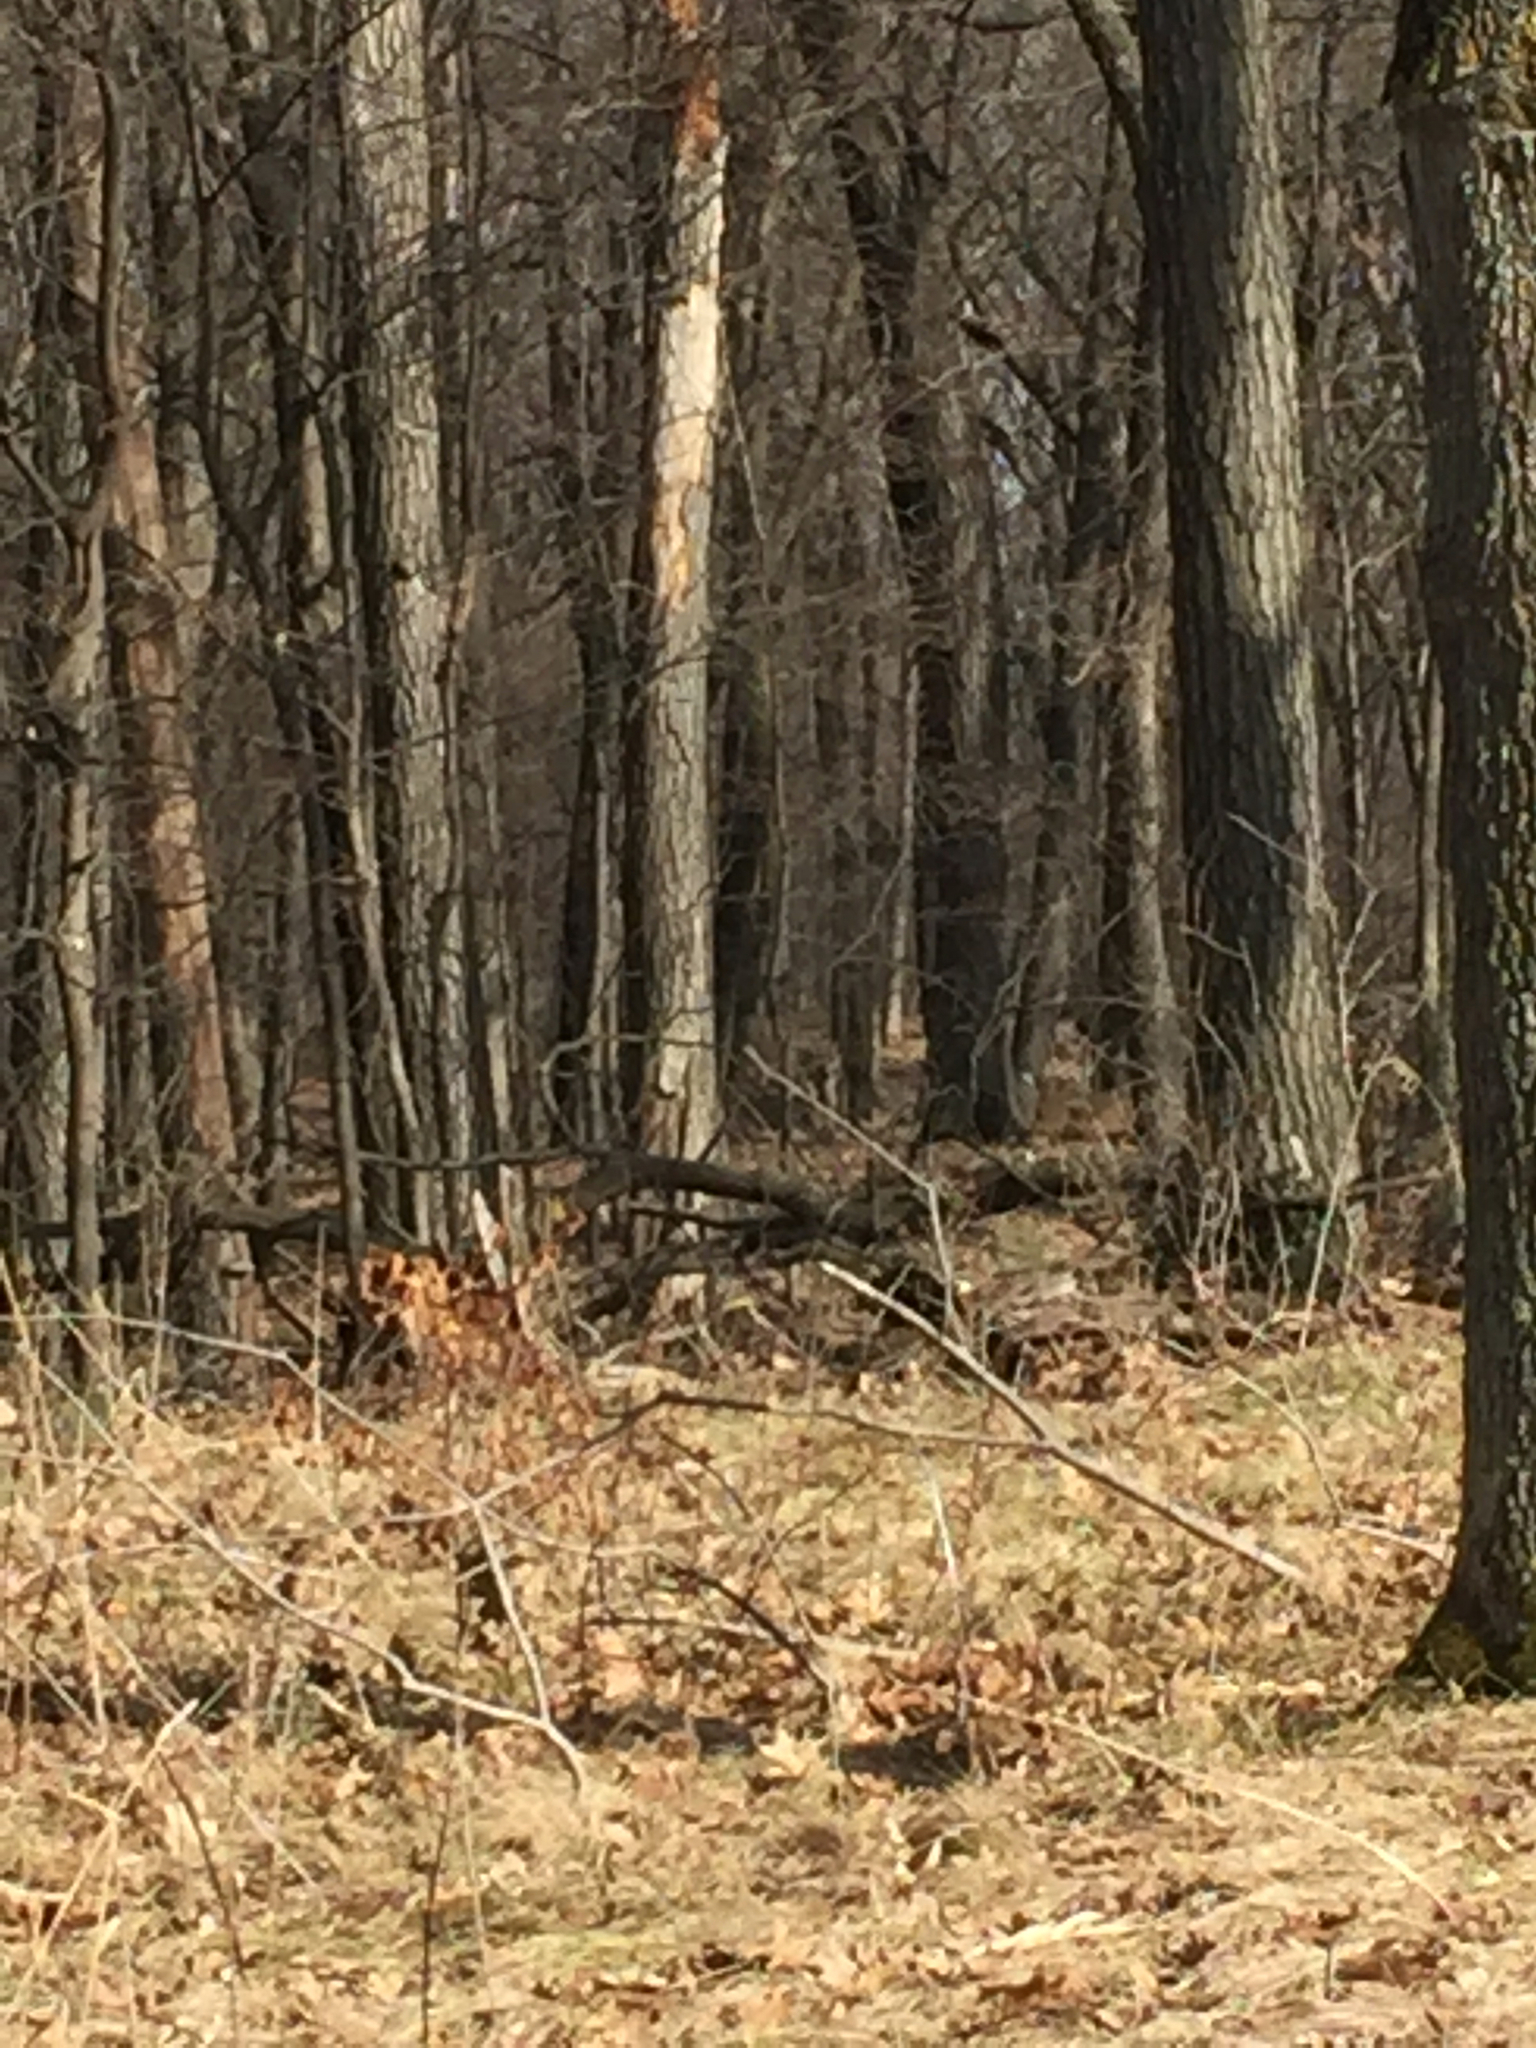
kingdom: Animalia
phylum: Chordata
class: Mammalia
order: Artiodactyla
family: Cervidae
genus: Odocoileus
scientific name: Odocoileus virginianus
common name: White-tailed deer
